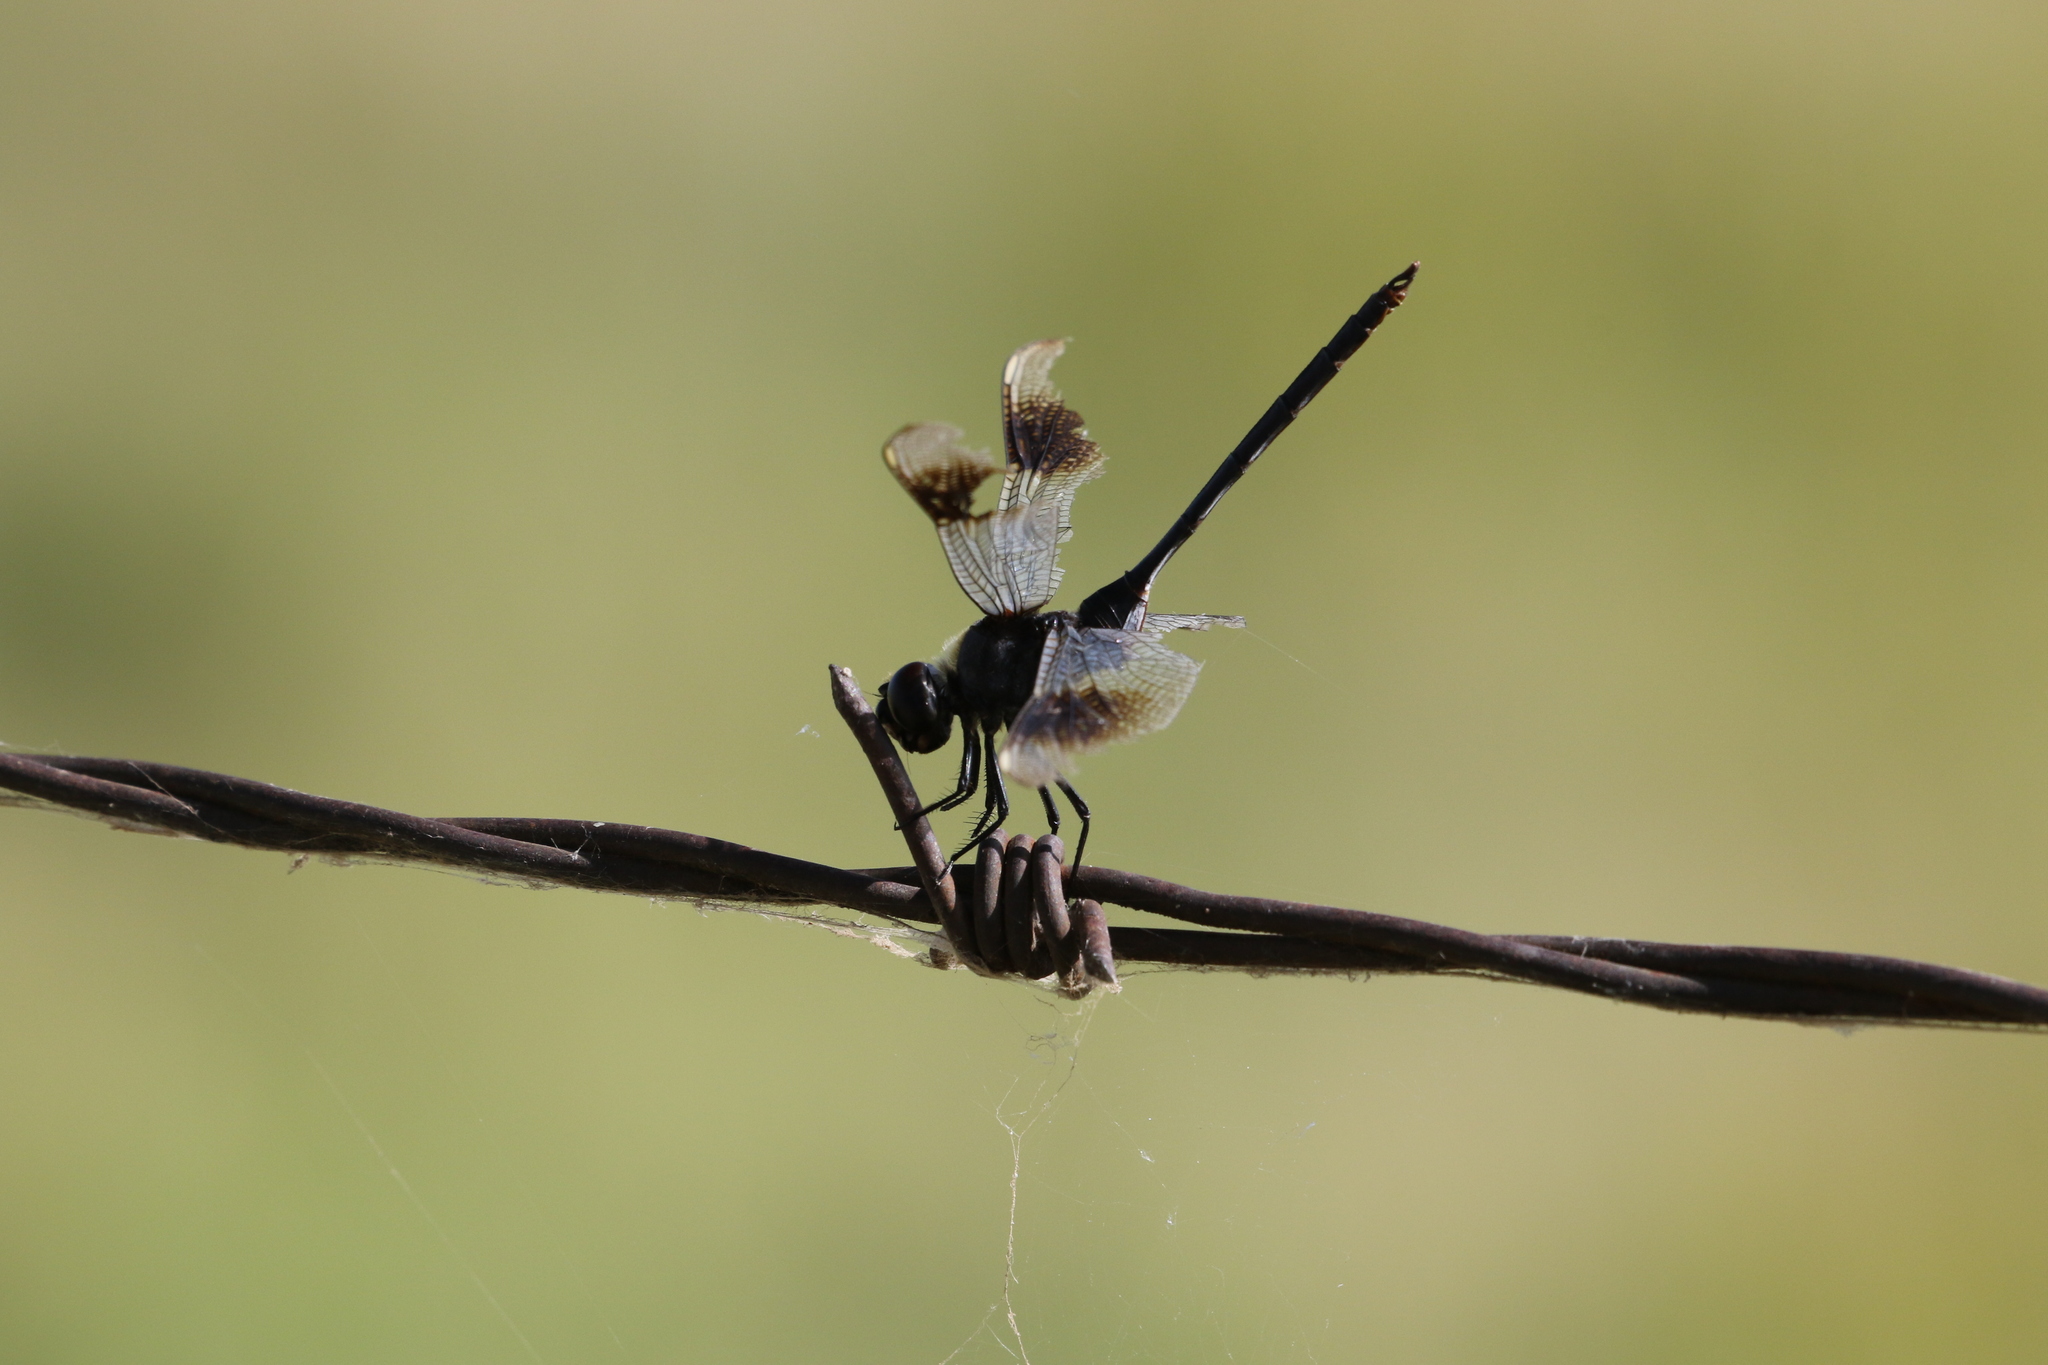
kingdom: Animalia
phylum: Arthropoda
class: Insecta
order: Odonata
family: Libellulidae
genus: Brachymesia
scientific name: Brachymesia gravida
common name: Four-spotted pennant
